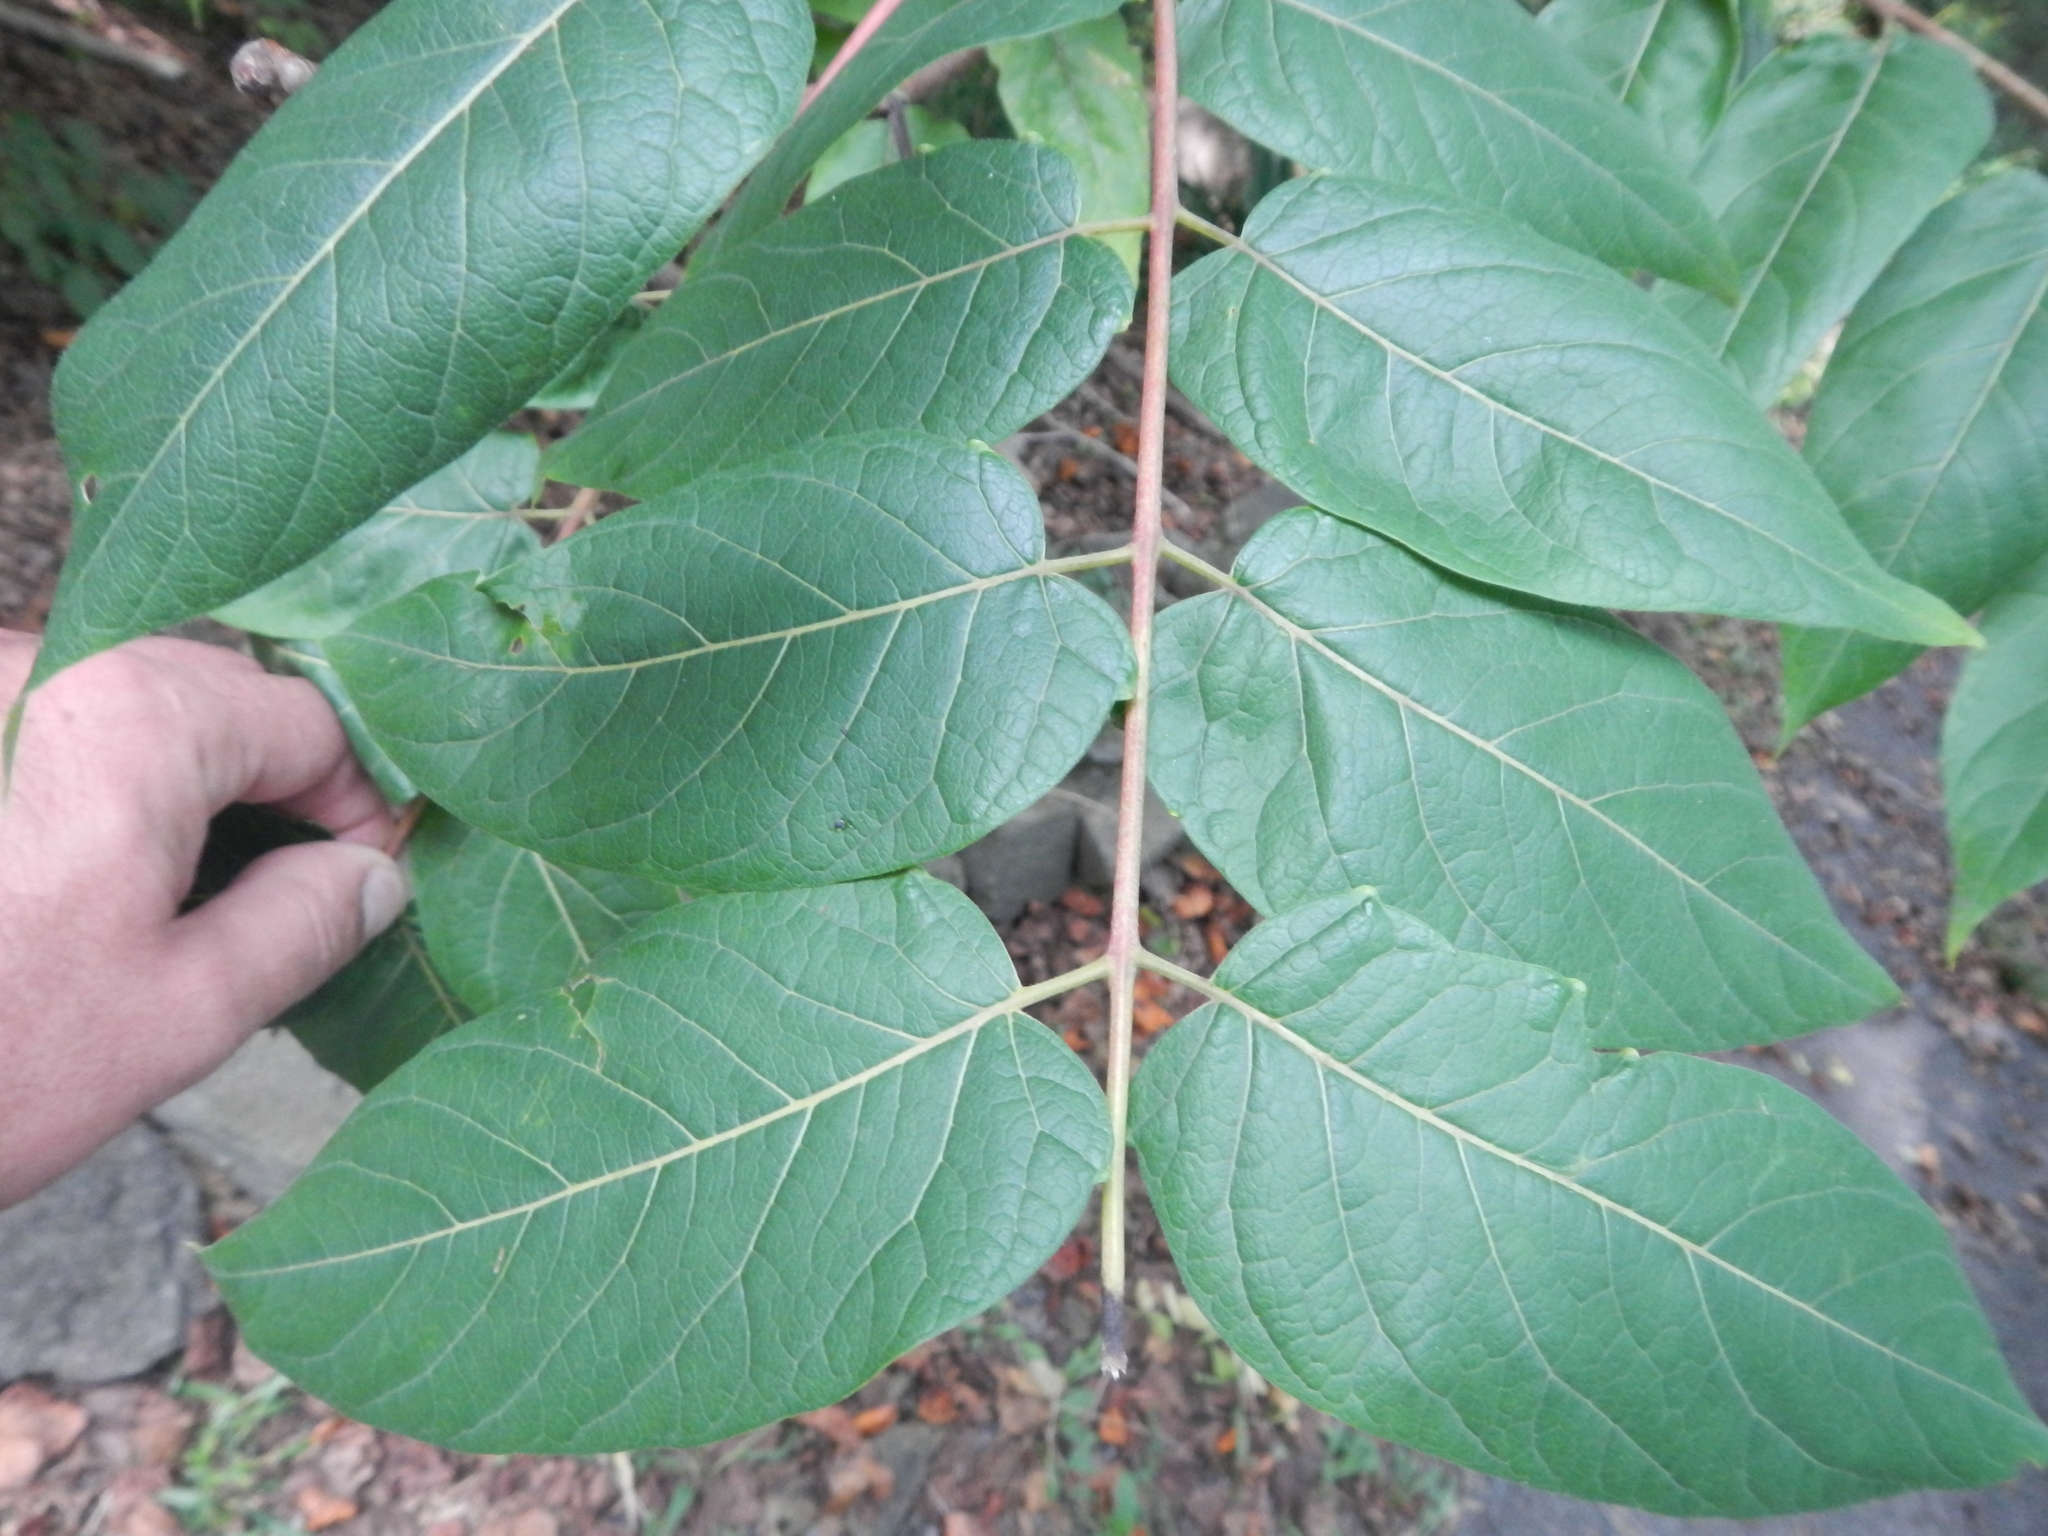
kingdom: Plantae
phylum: Tracheophyta
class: Magnoliopsida
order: Sapindales
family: Simaroubaceae
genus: Ailanthus
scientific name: Ailanthus altissima
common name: Tree-of-heaven
